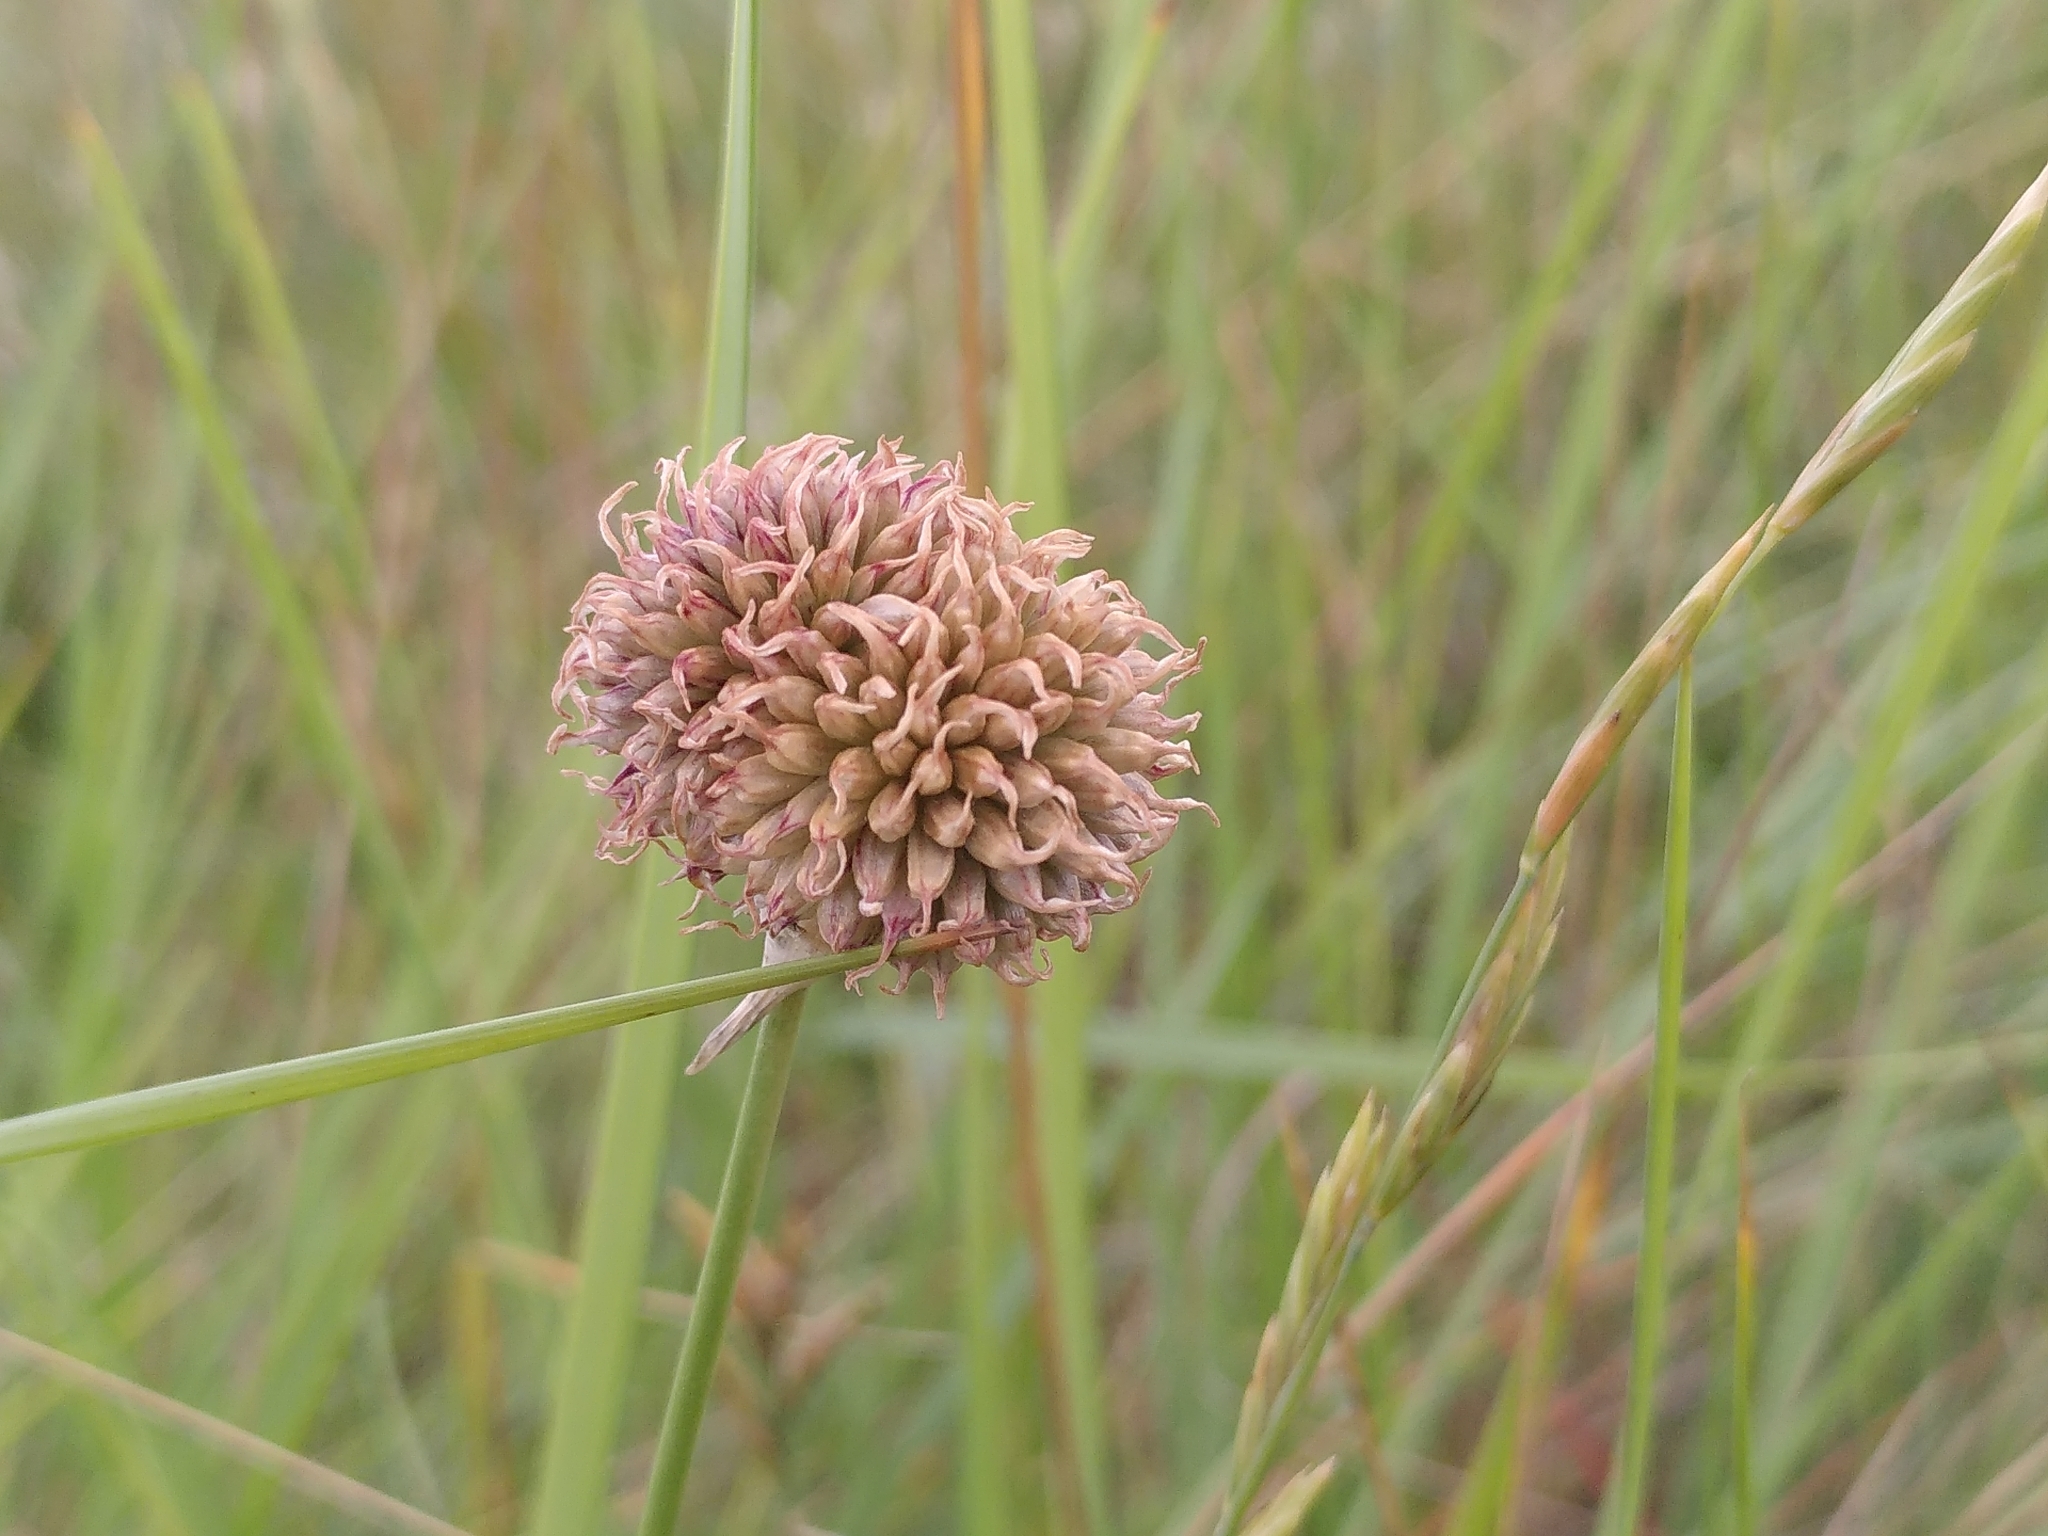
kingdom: Plantae
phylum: Tracheophyta
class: Liliopsida
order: Asparagales
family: Amaryllidaceae
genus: Allium
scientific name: Allium vineale
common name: Crow garlic
